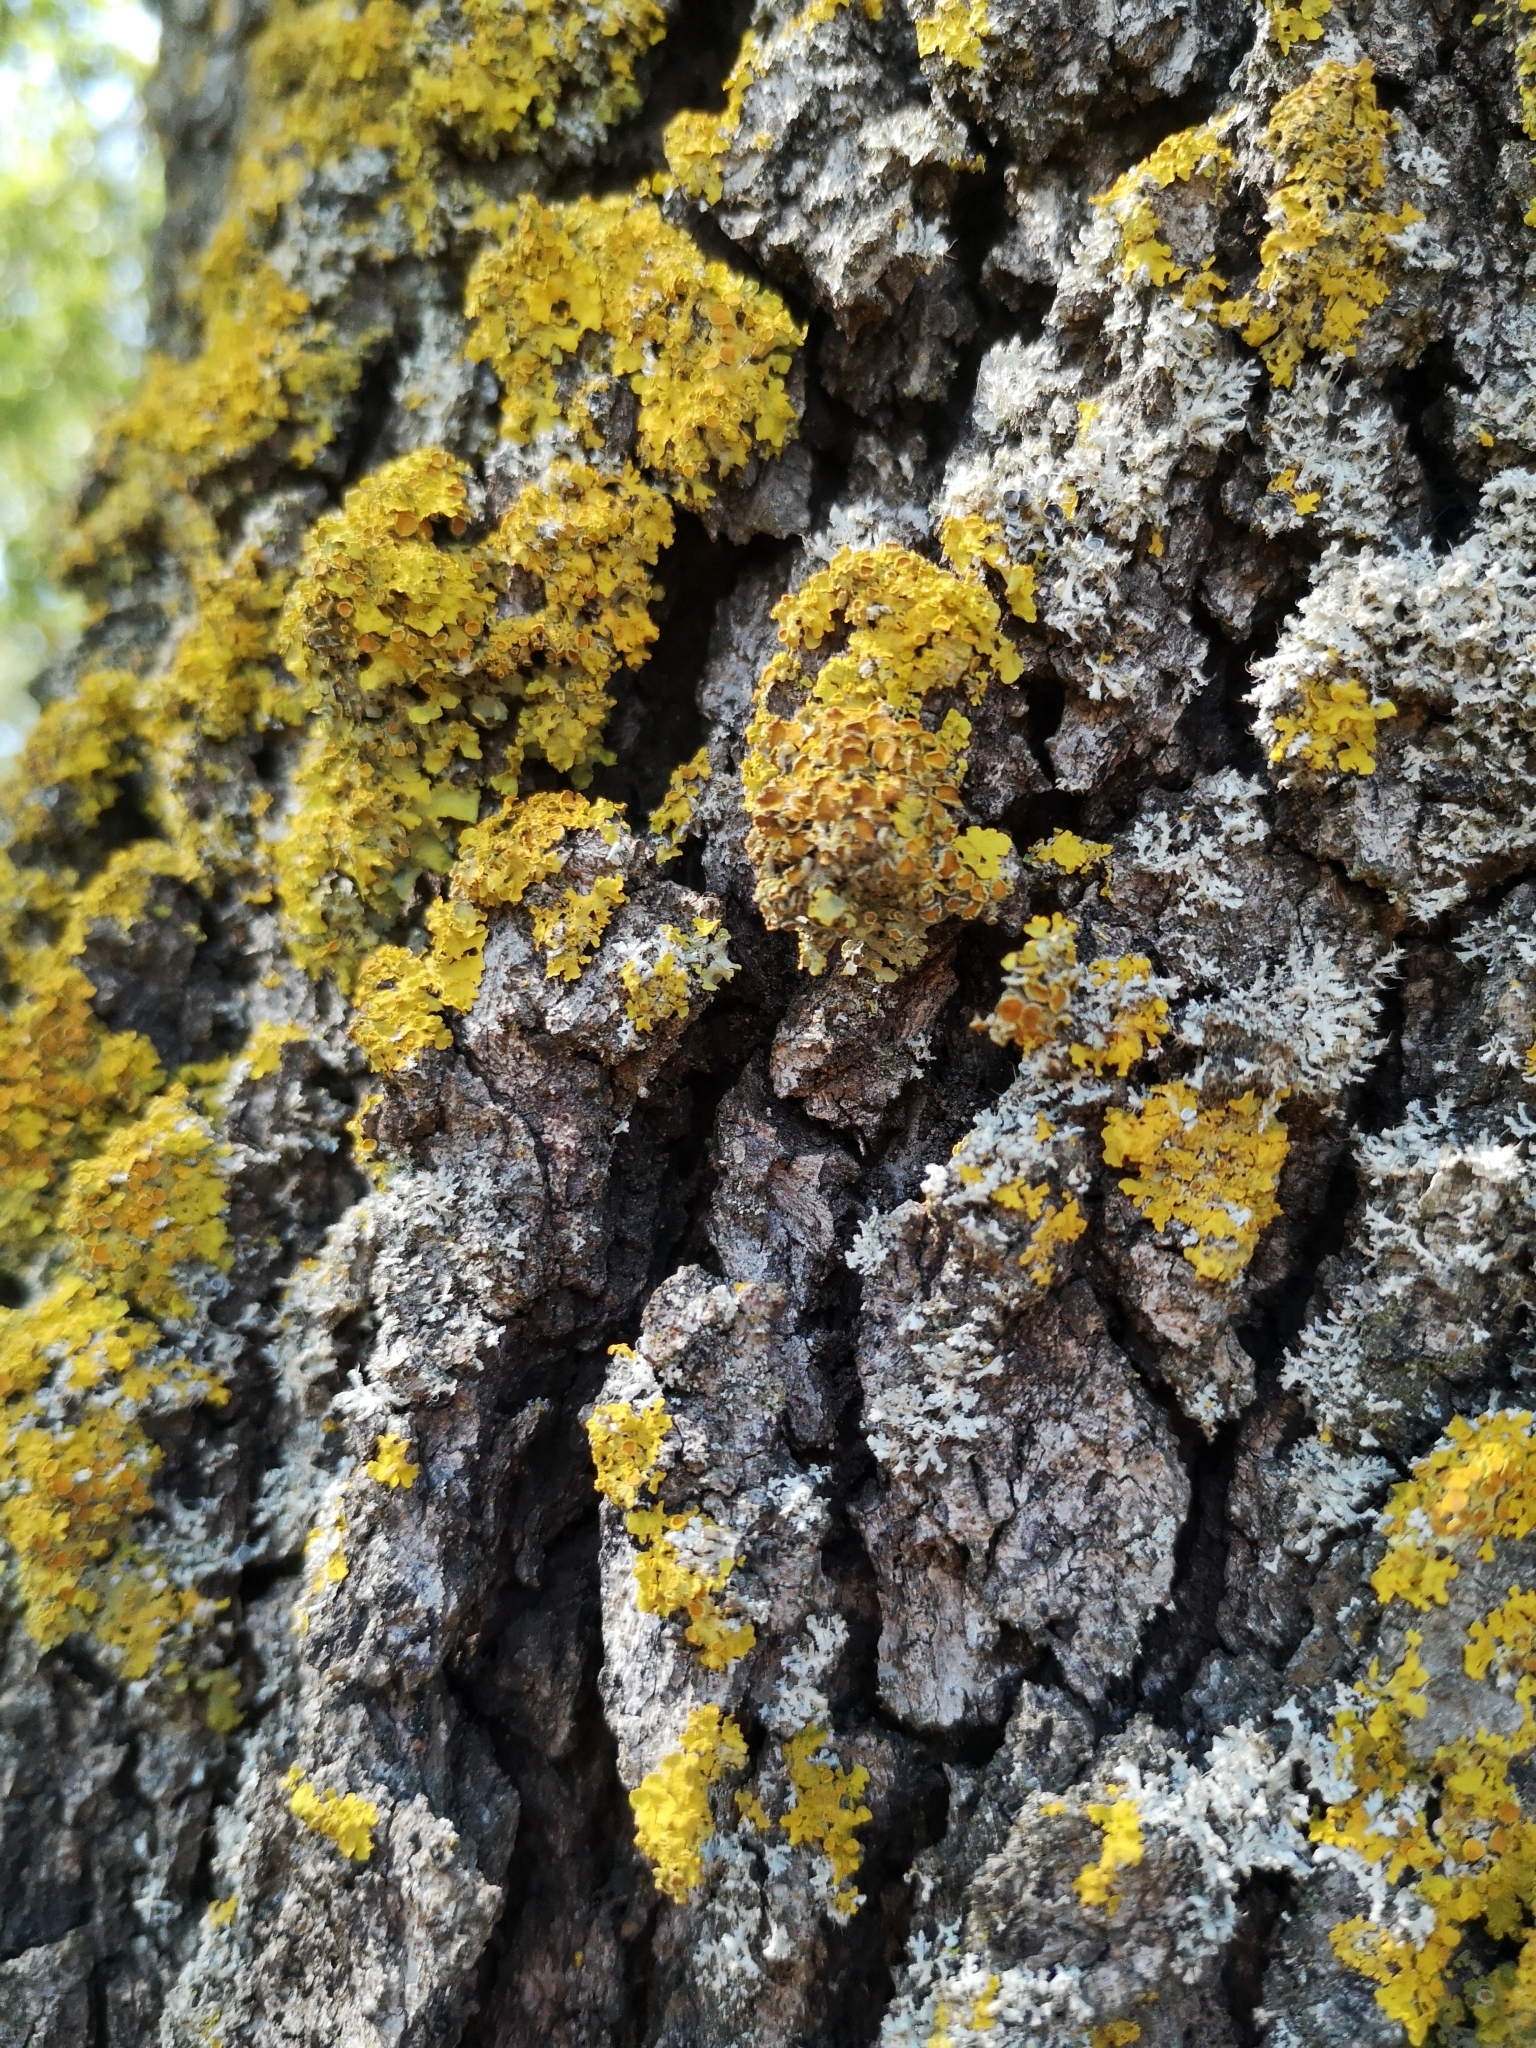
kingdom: Fungi
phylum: Ascomycota
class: Lecanoromycetes
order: Teloschistales
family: Teloschistaceae
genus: Xanthoria
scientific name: Xanthoria parietina
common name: Common orange lichen
